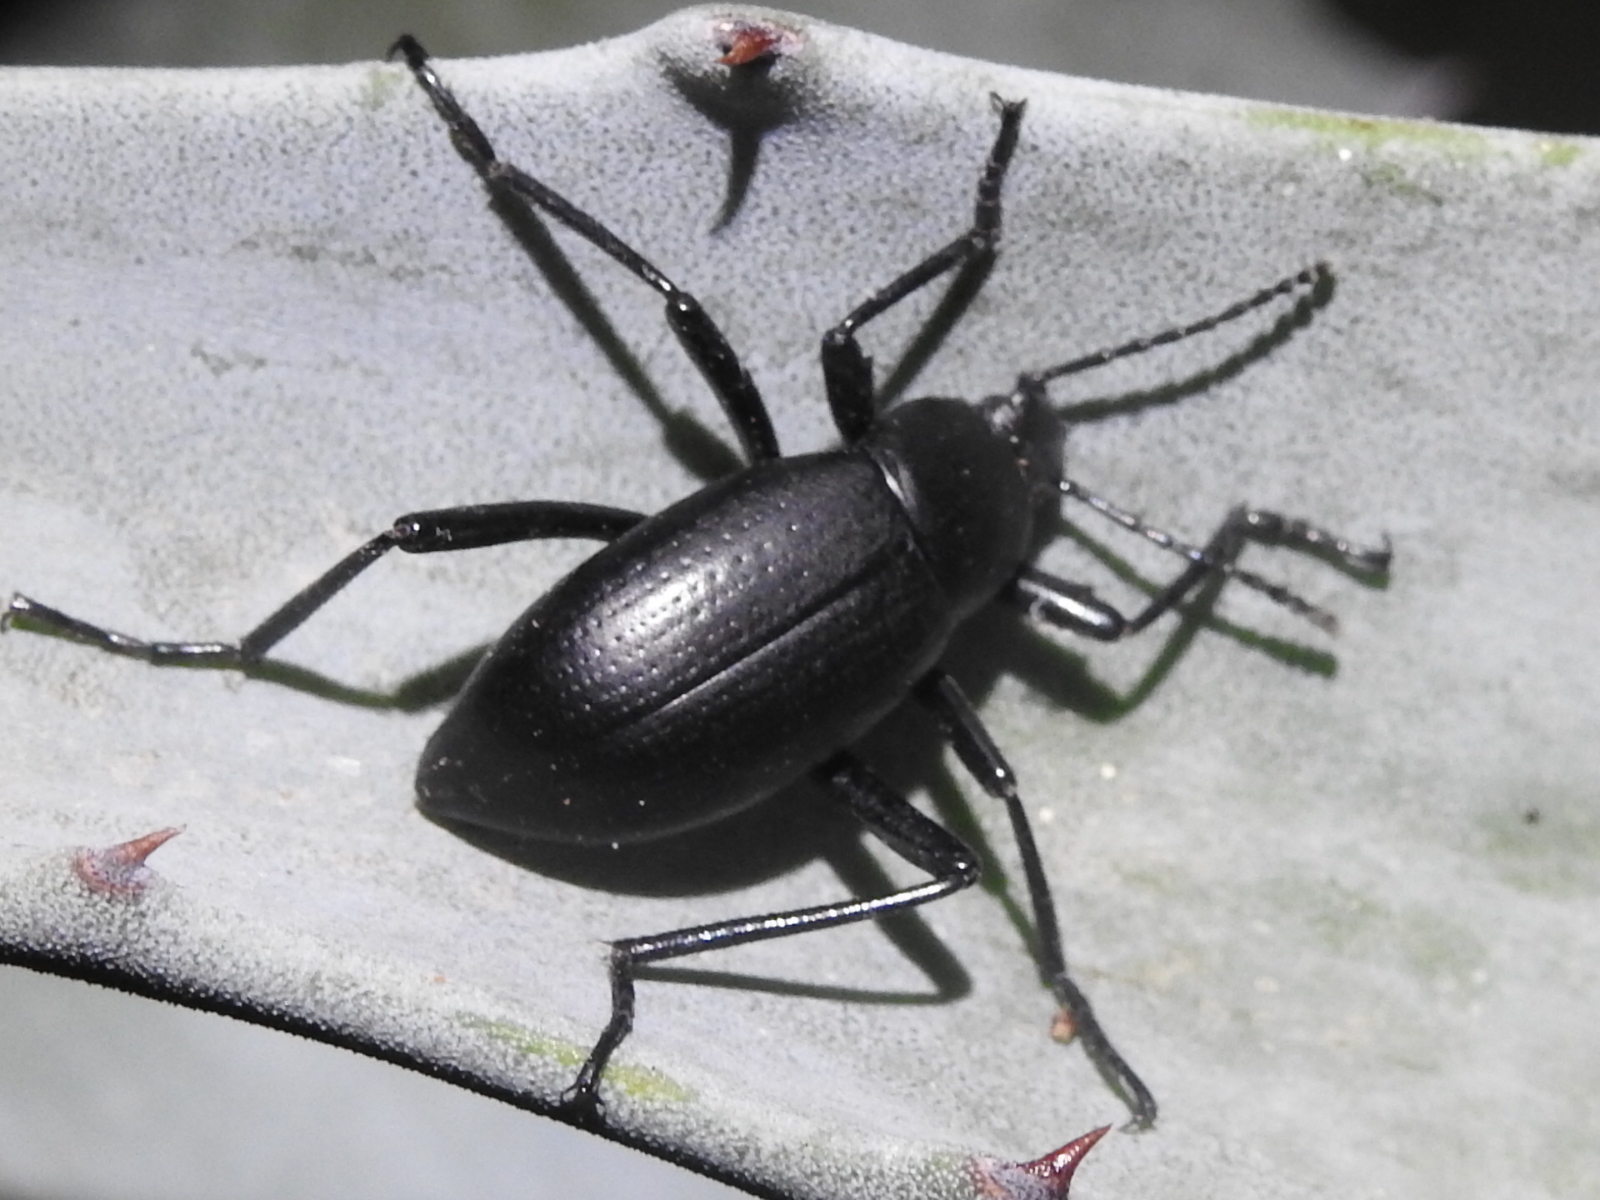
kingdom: Animalia
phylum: Arthropoda
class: Insecta
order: Coleoptera
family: Tenebrionidae
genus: Eleodes
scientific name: Eleodes goryi
